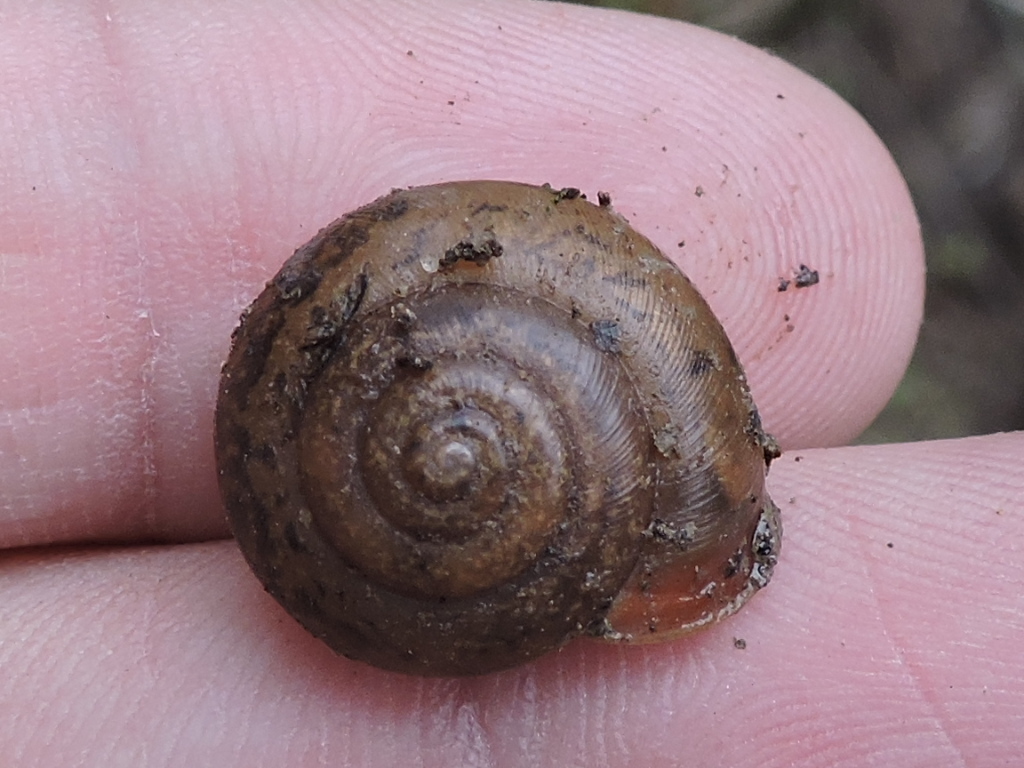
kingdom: Animalia
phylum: Mollusca
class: Gastropoda
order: Stylommatophora
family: Polygyridae
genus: Mesodon
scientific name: Mesodon thyroidus
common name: White-lip globe
